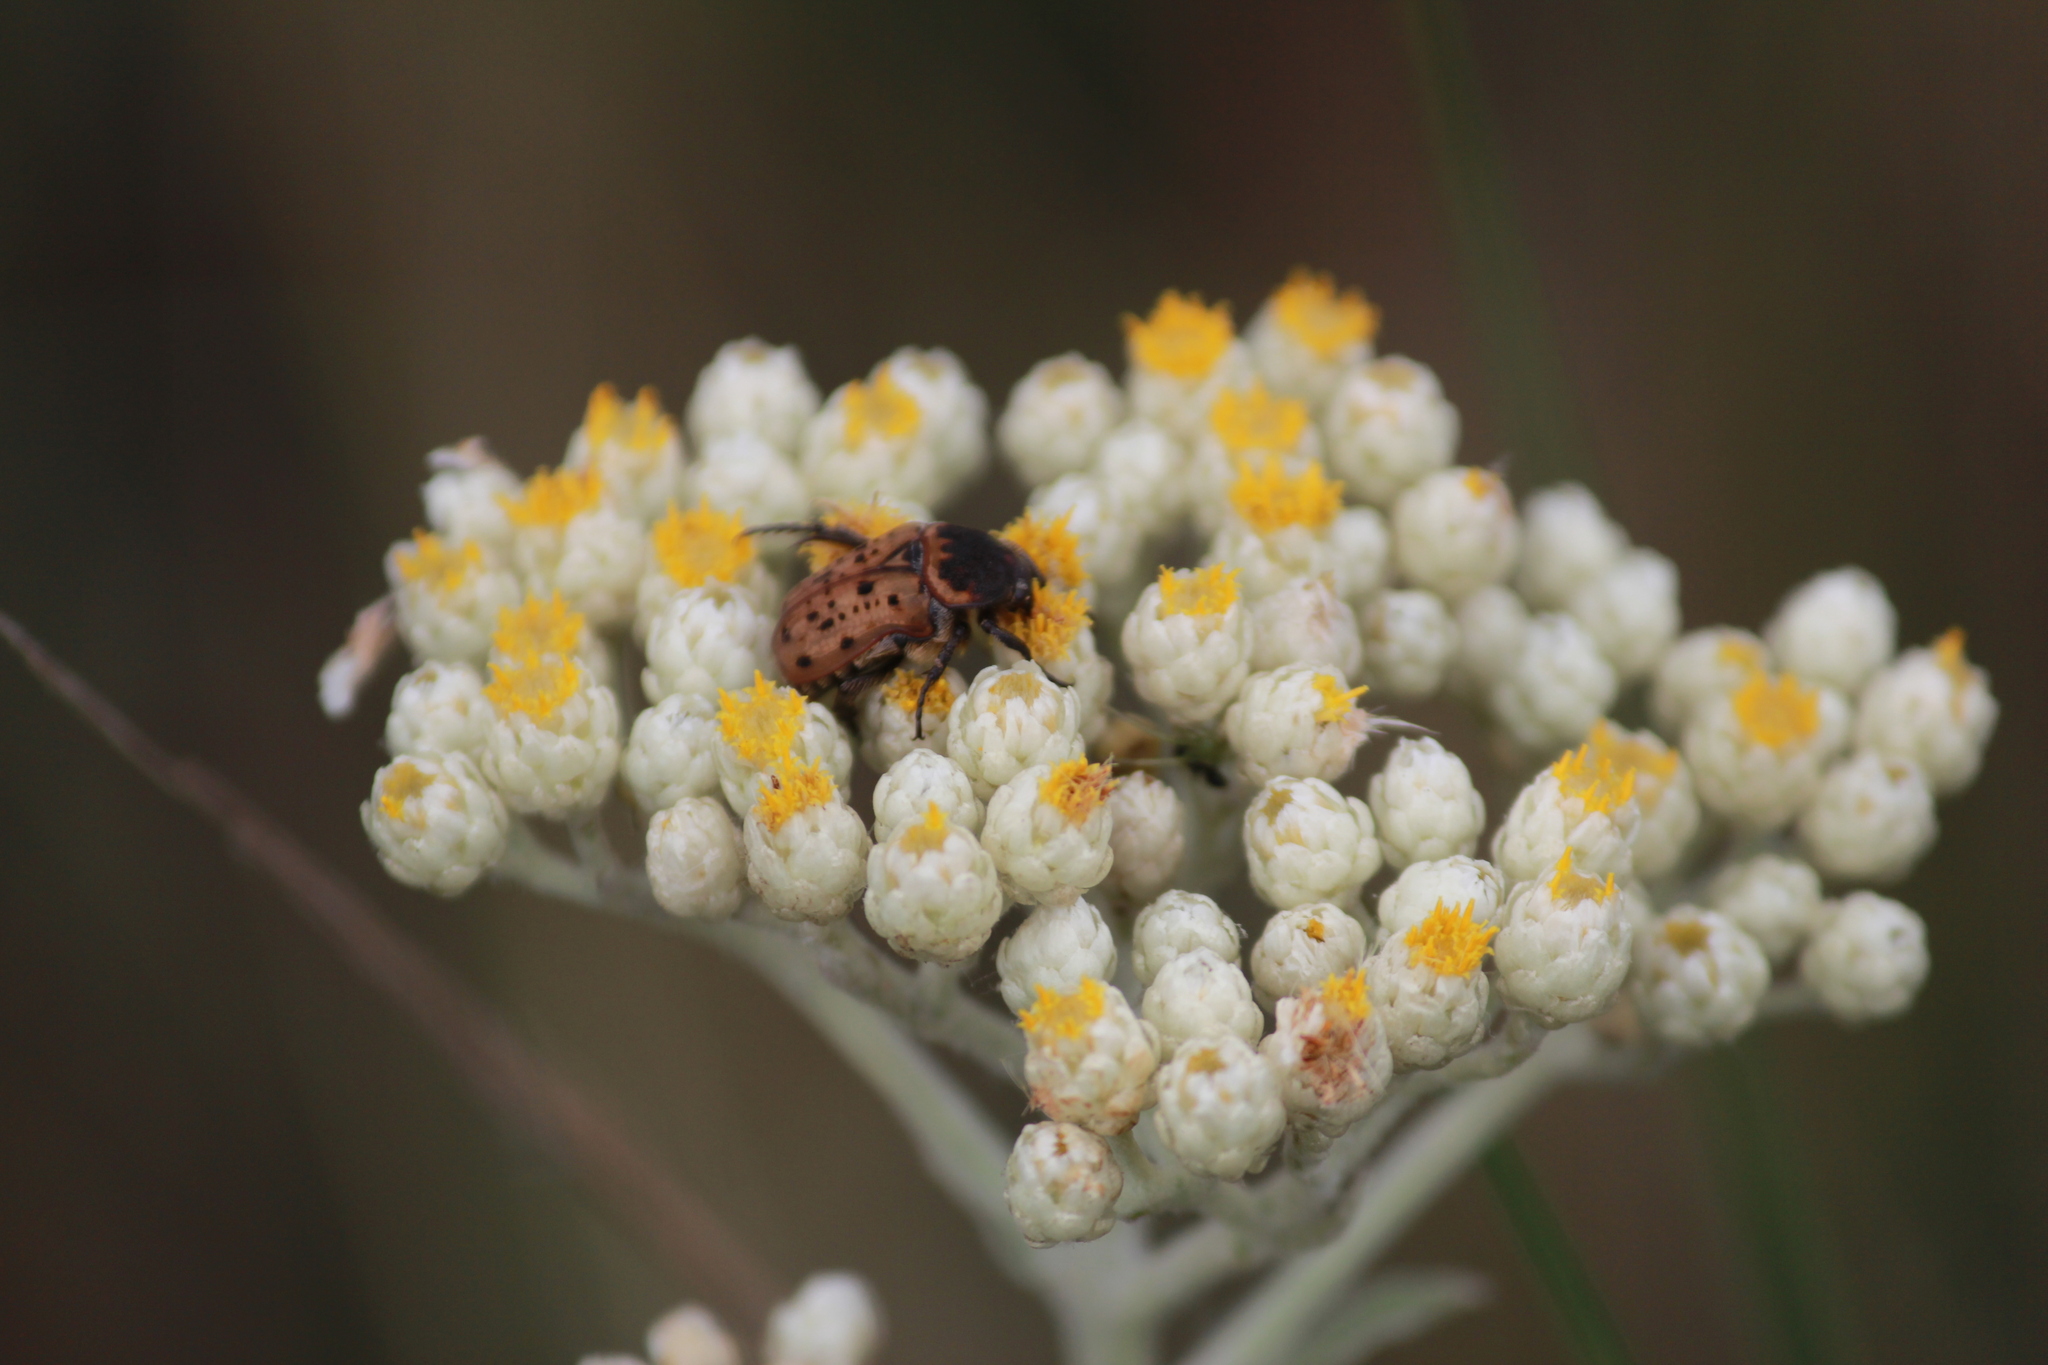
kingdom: Animalia
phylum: Arthropoda
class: Insecta
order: Coleoptera
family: Scarabaeidae
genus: Atrichelaphinis
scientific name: Atrichelaphinis tigrina
